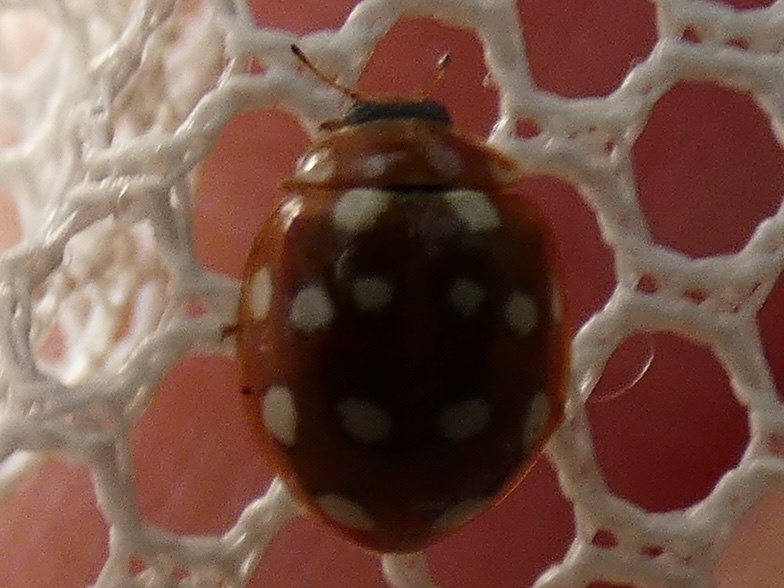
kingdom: Animalia
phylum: Arthropoda
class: Insecta
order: Coleoptera
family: Coccinellidae
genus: Calvia
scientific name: Calvia quatuordecimguttata
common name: Cream-spot ladybird
